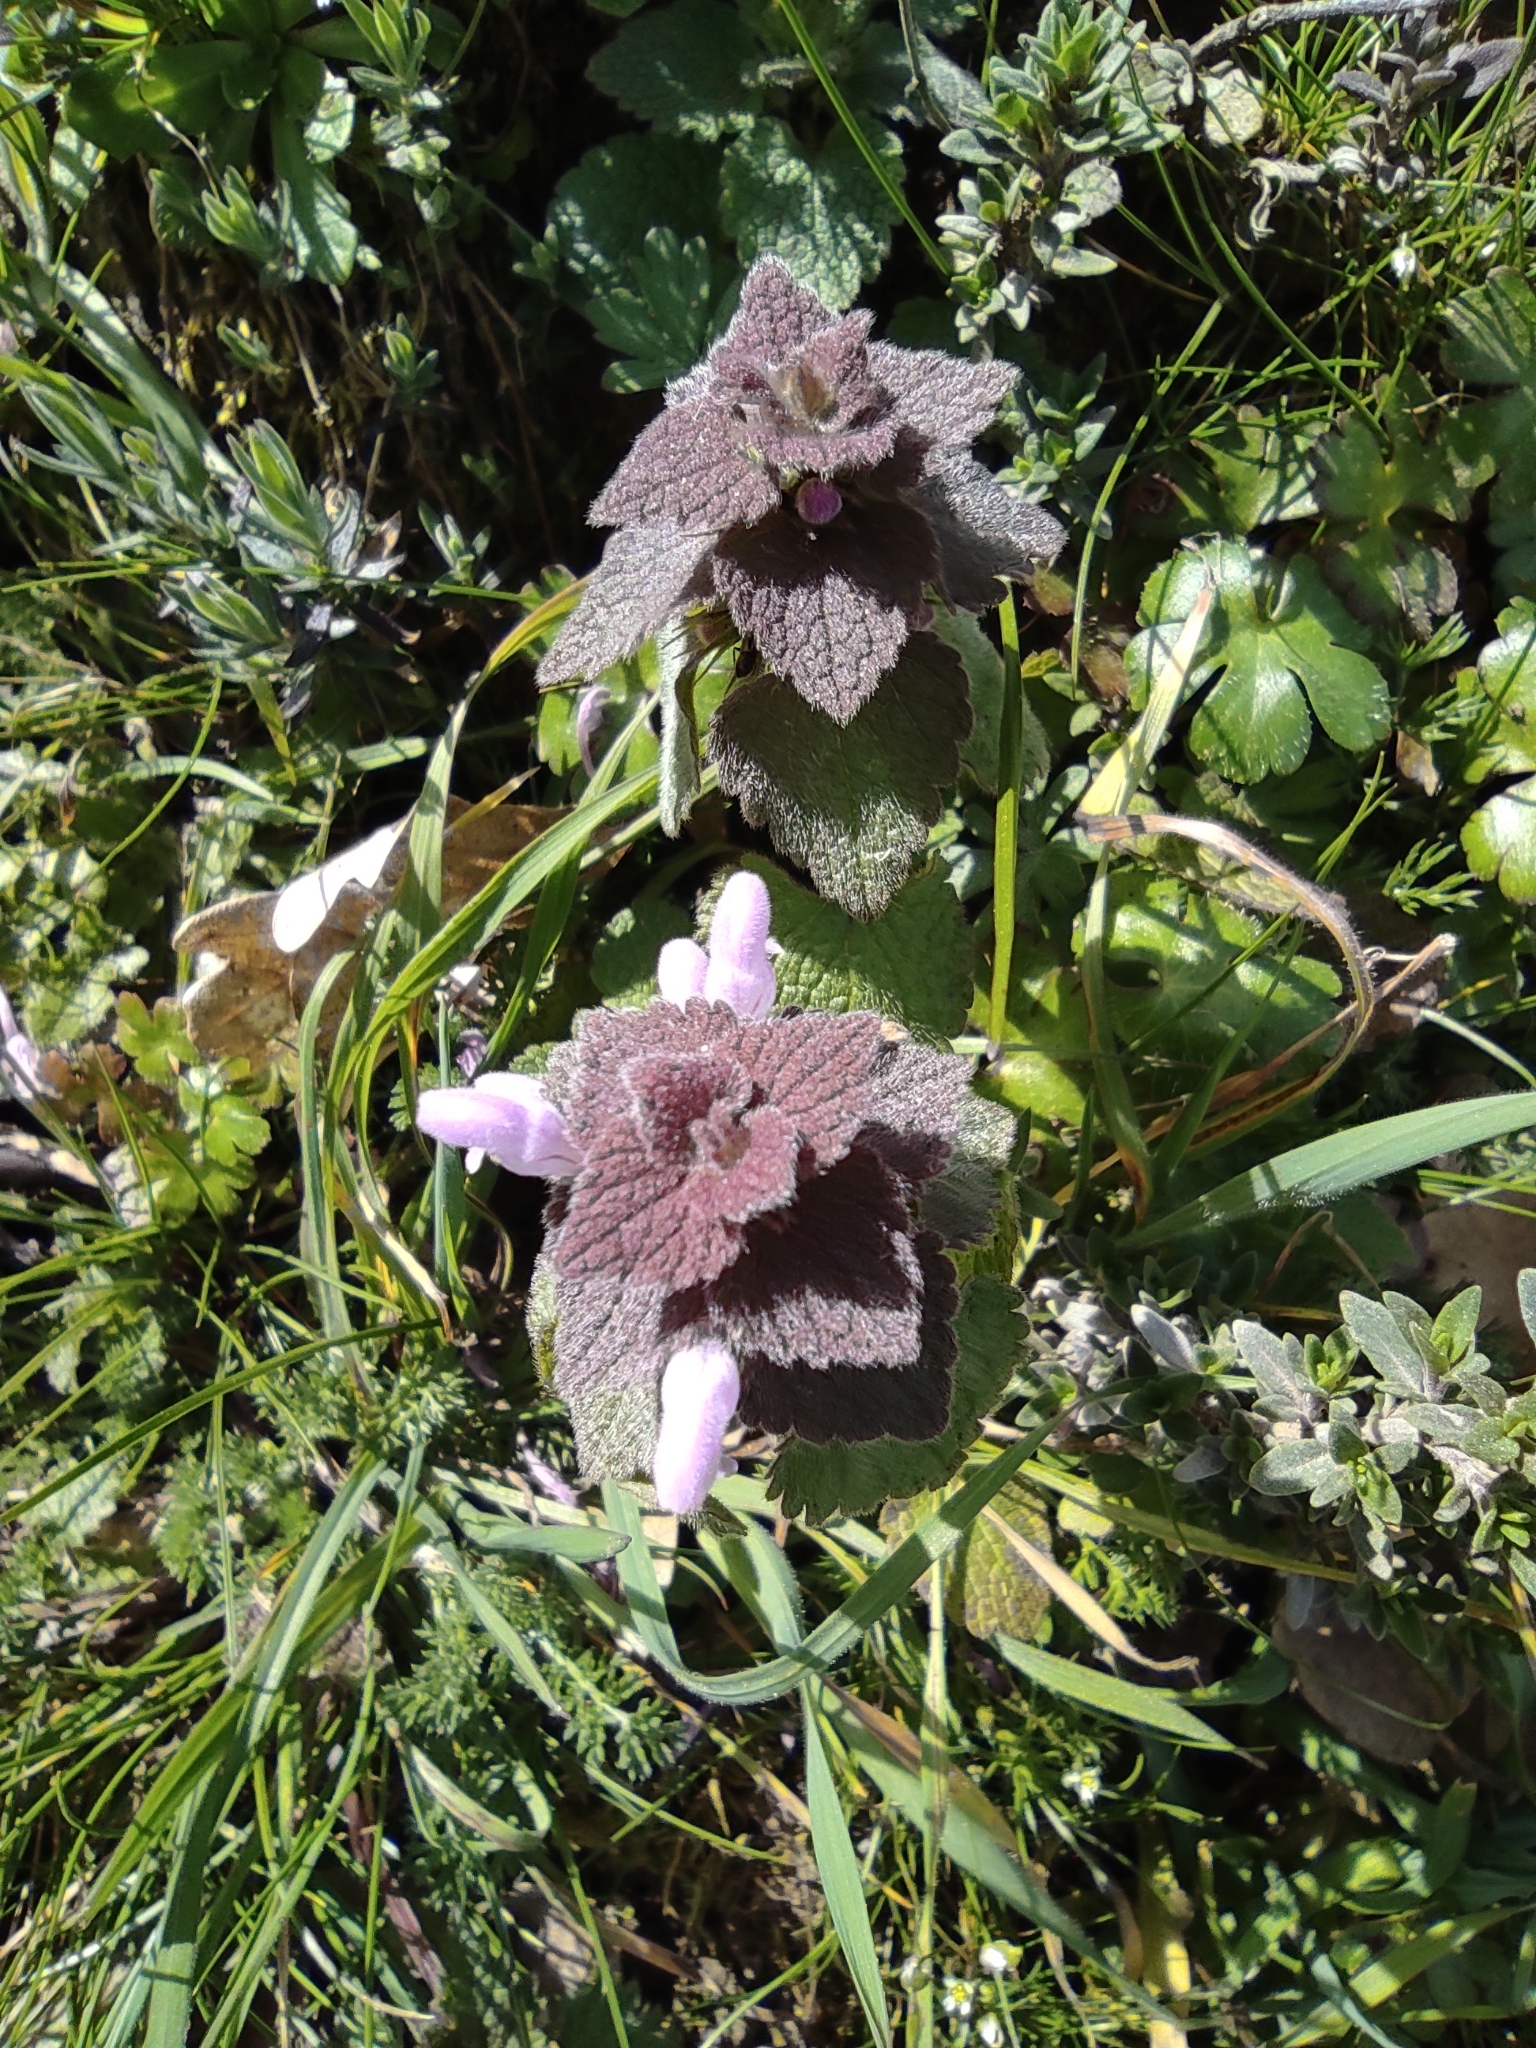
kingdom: Plantae
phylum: Tracheophyta
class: Magnoliopsida
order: Lamiales
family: Lamiaceae
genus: Lamium
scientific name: Lamium purpureum
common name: Red dead-nettle
